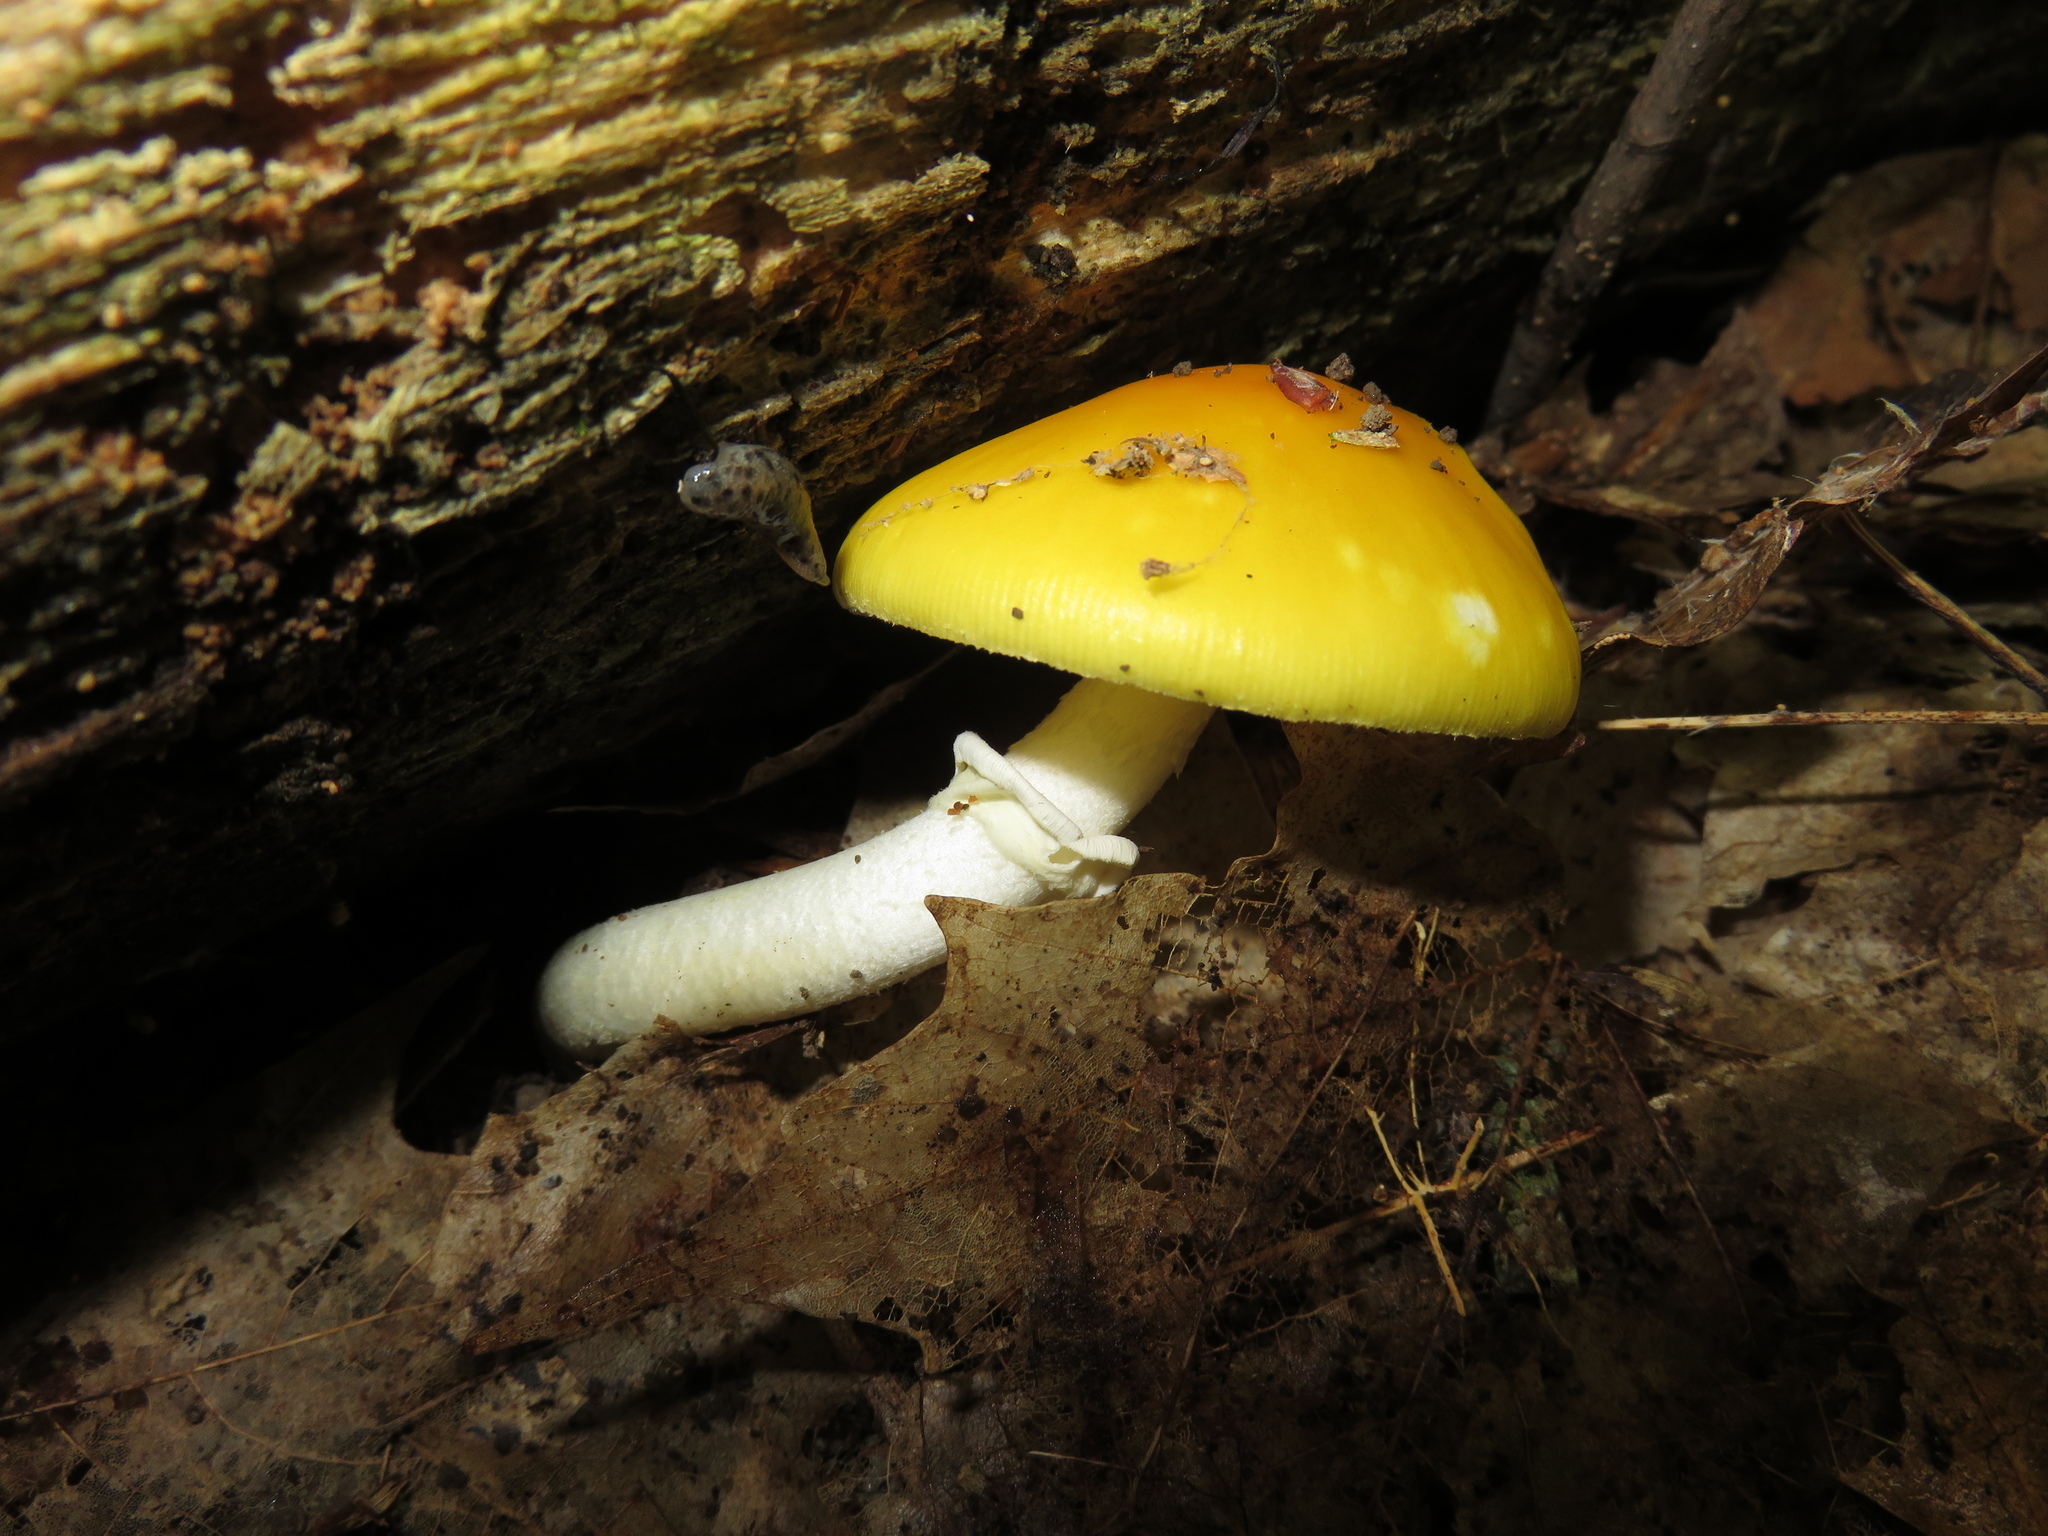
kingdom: Fungi
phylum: Basidiomycota
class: Agaricomycetes
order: Agaricales
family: Amanitaceae
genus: Amanita
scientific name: Amanita flavoconia
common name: Yellow patches
